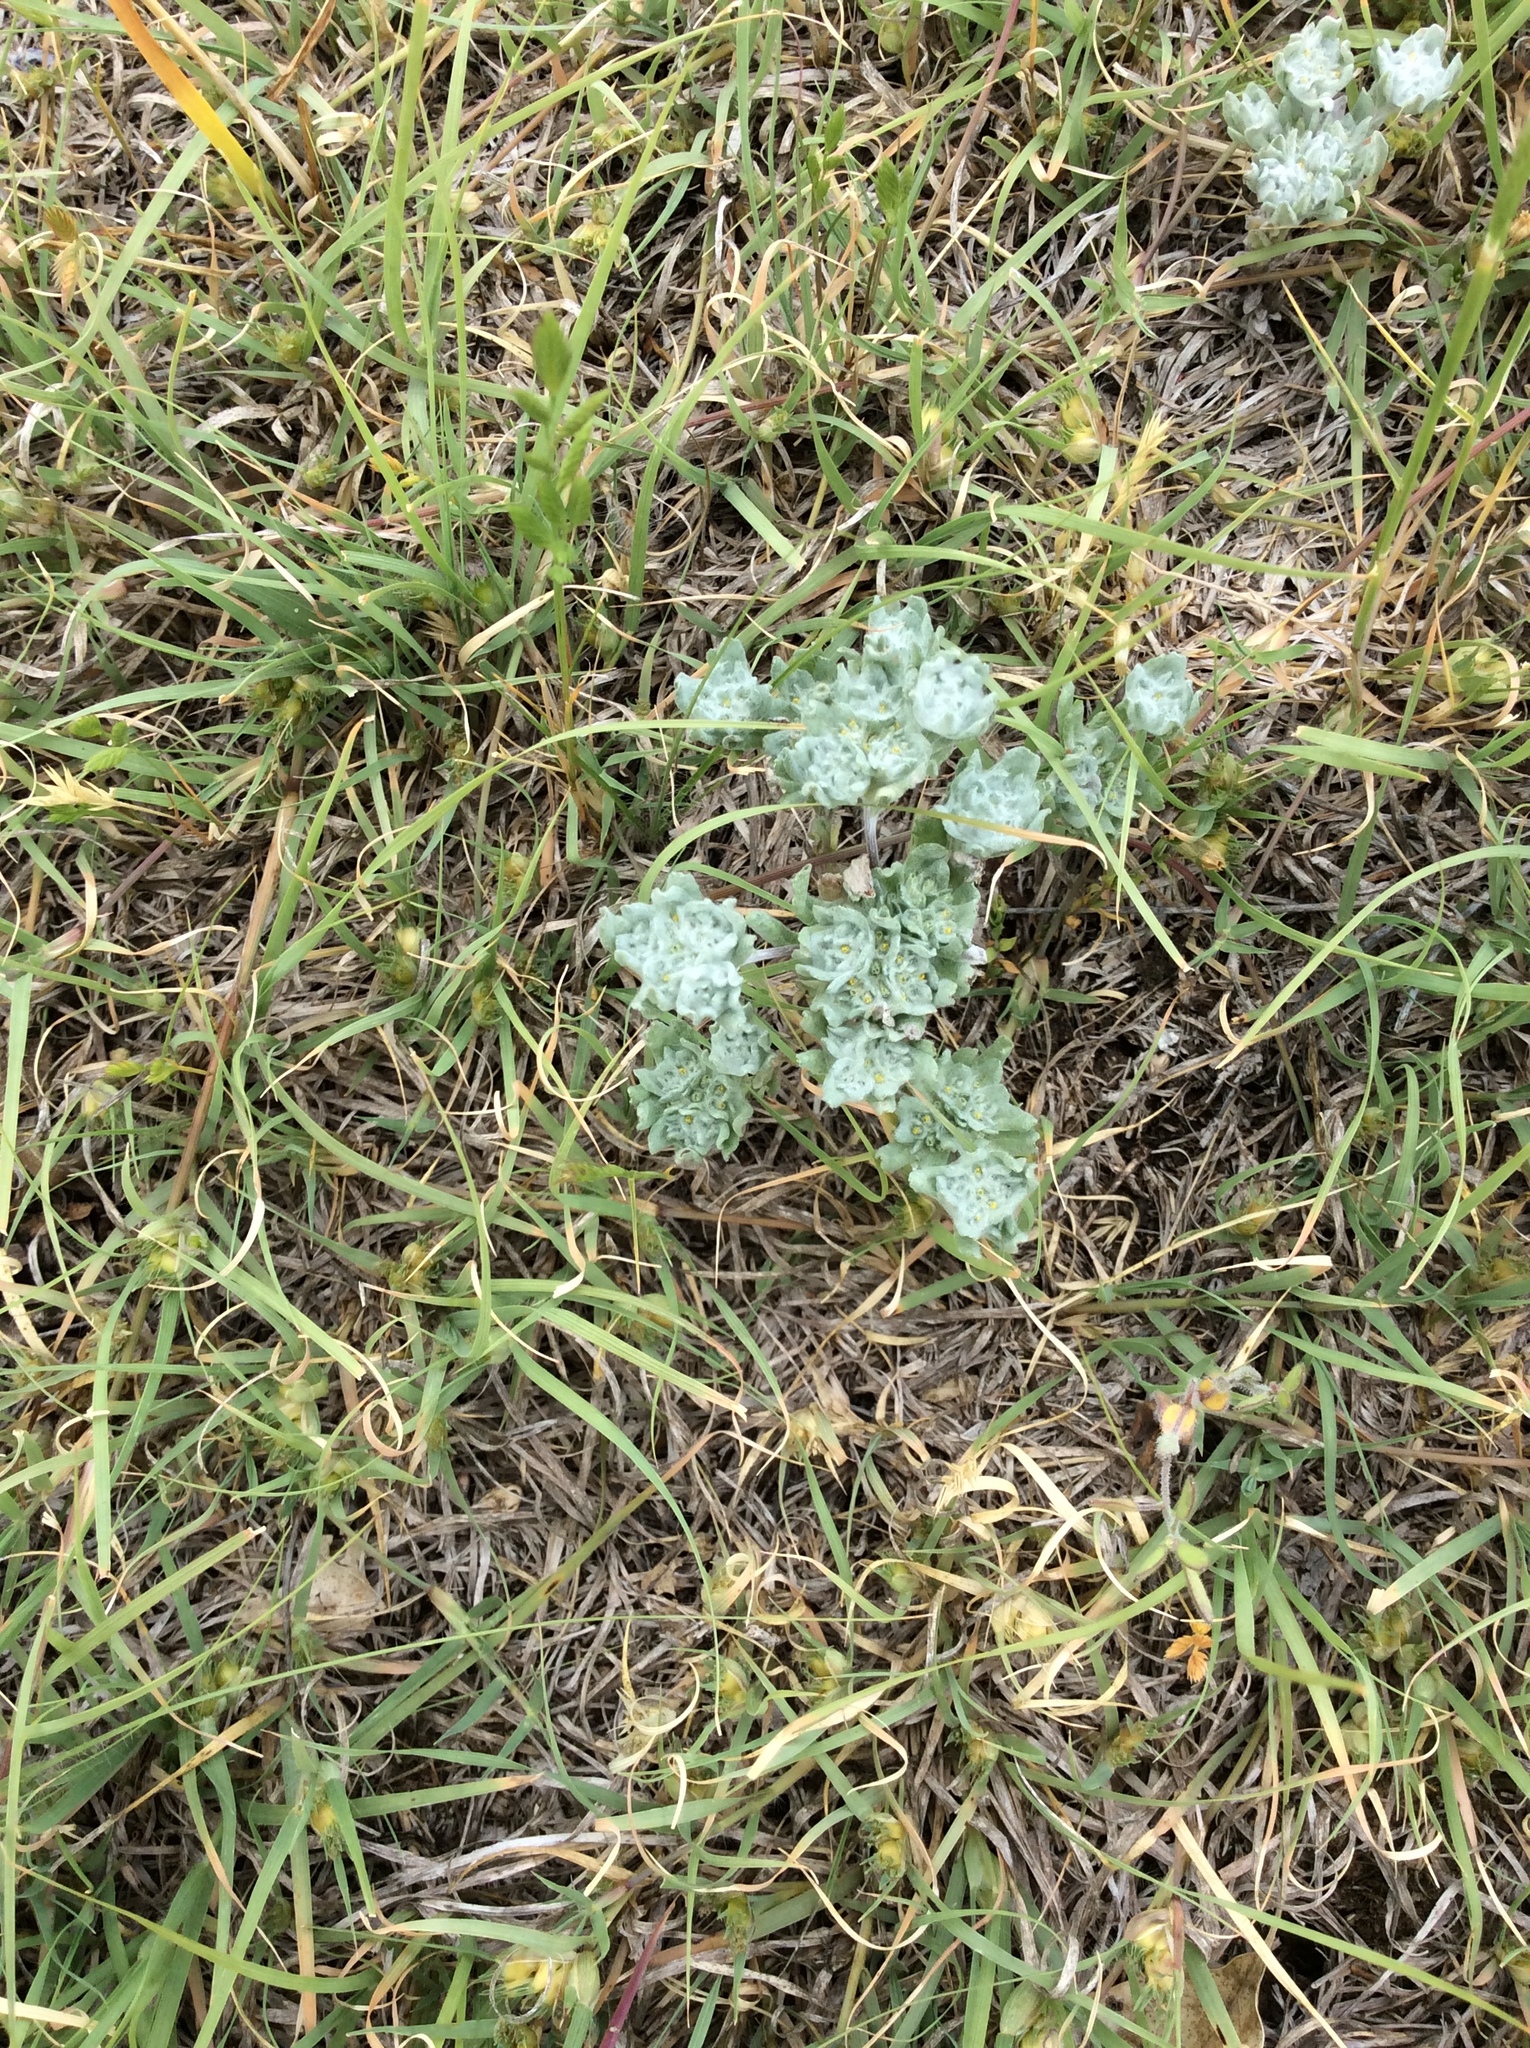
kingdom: Plantae
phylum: Tracheophyta
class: Magnoliopsida
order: Asterales
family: Asteraceae
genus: Diaperia
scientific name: Diaperia prolifera
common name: Big-head rabbit-tobacco
